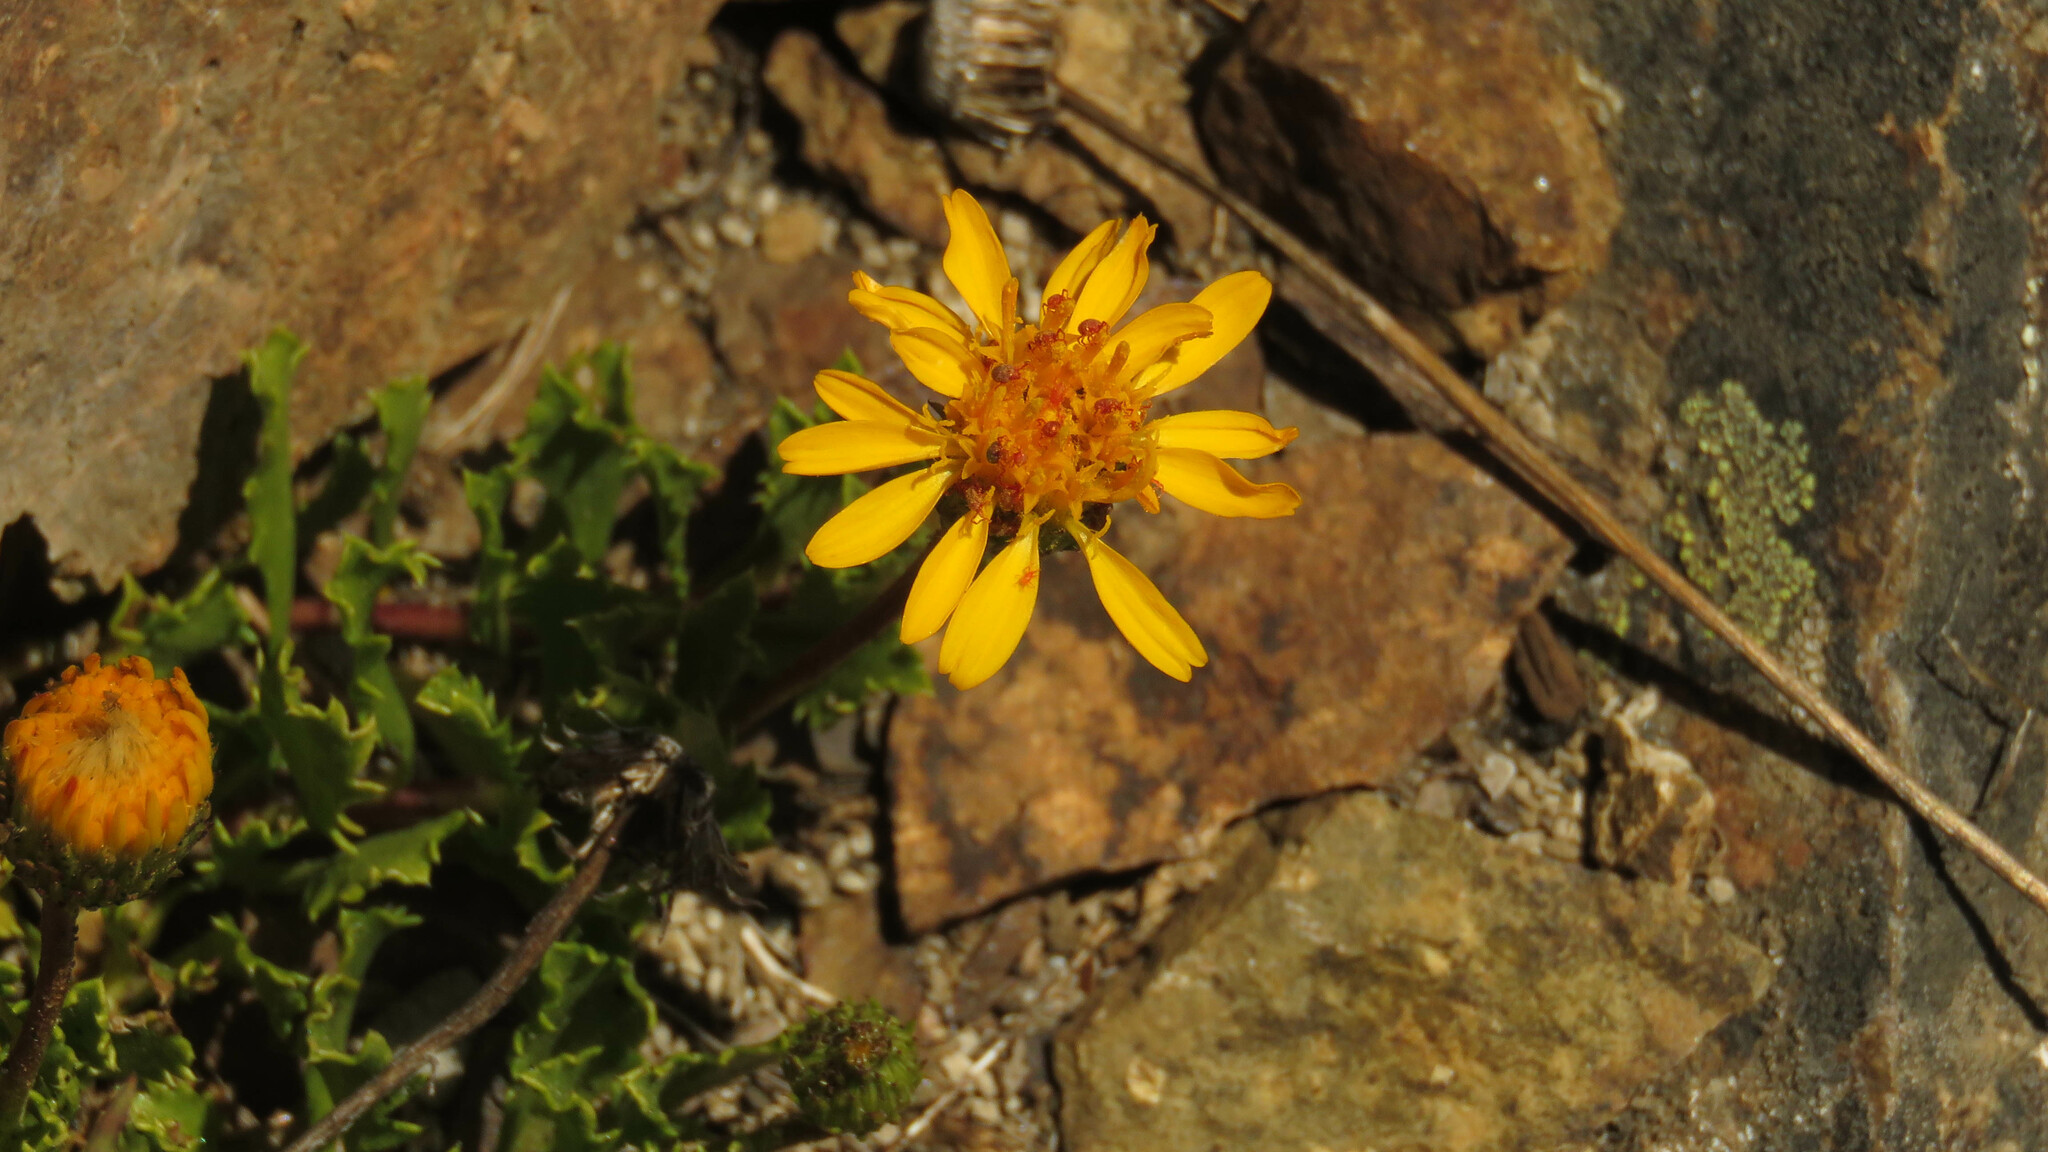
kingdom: Plantae
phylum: Tracheophyta
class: Magnoliopsida
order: Asterales
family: Asteraceae
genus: Haplopappus
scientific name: Haplopappus glutinosus
